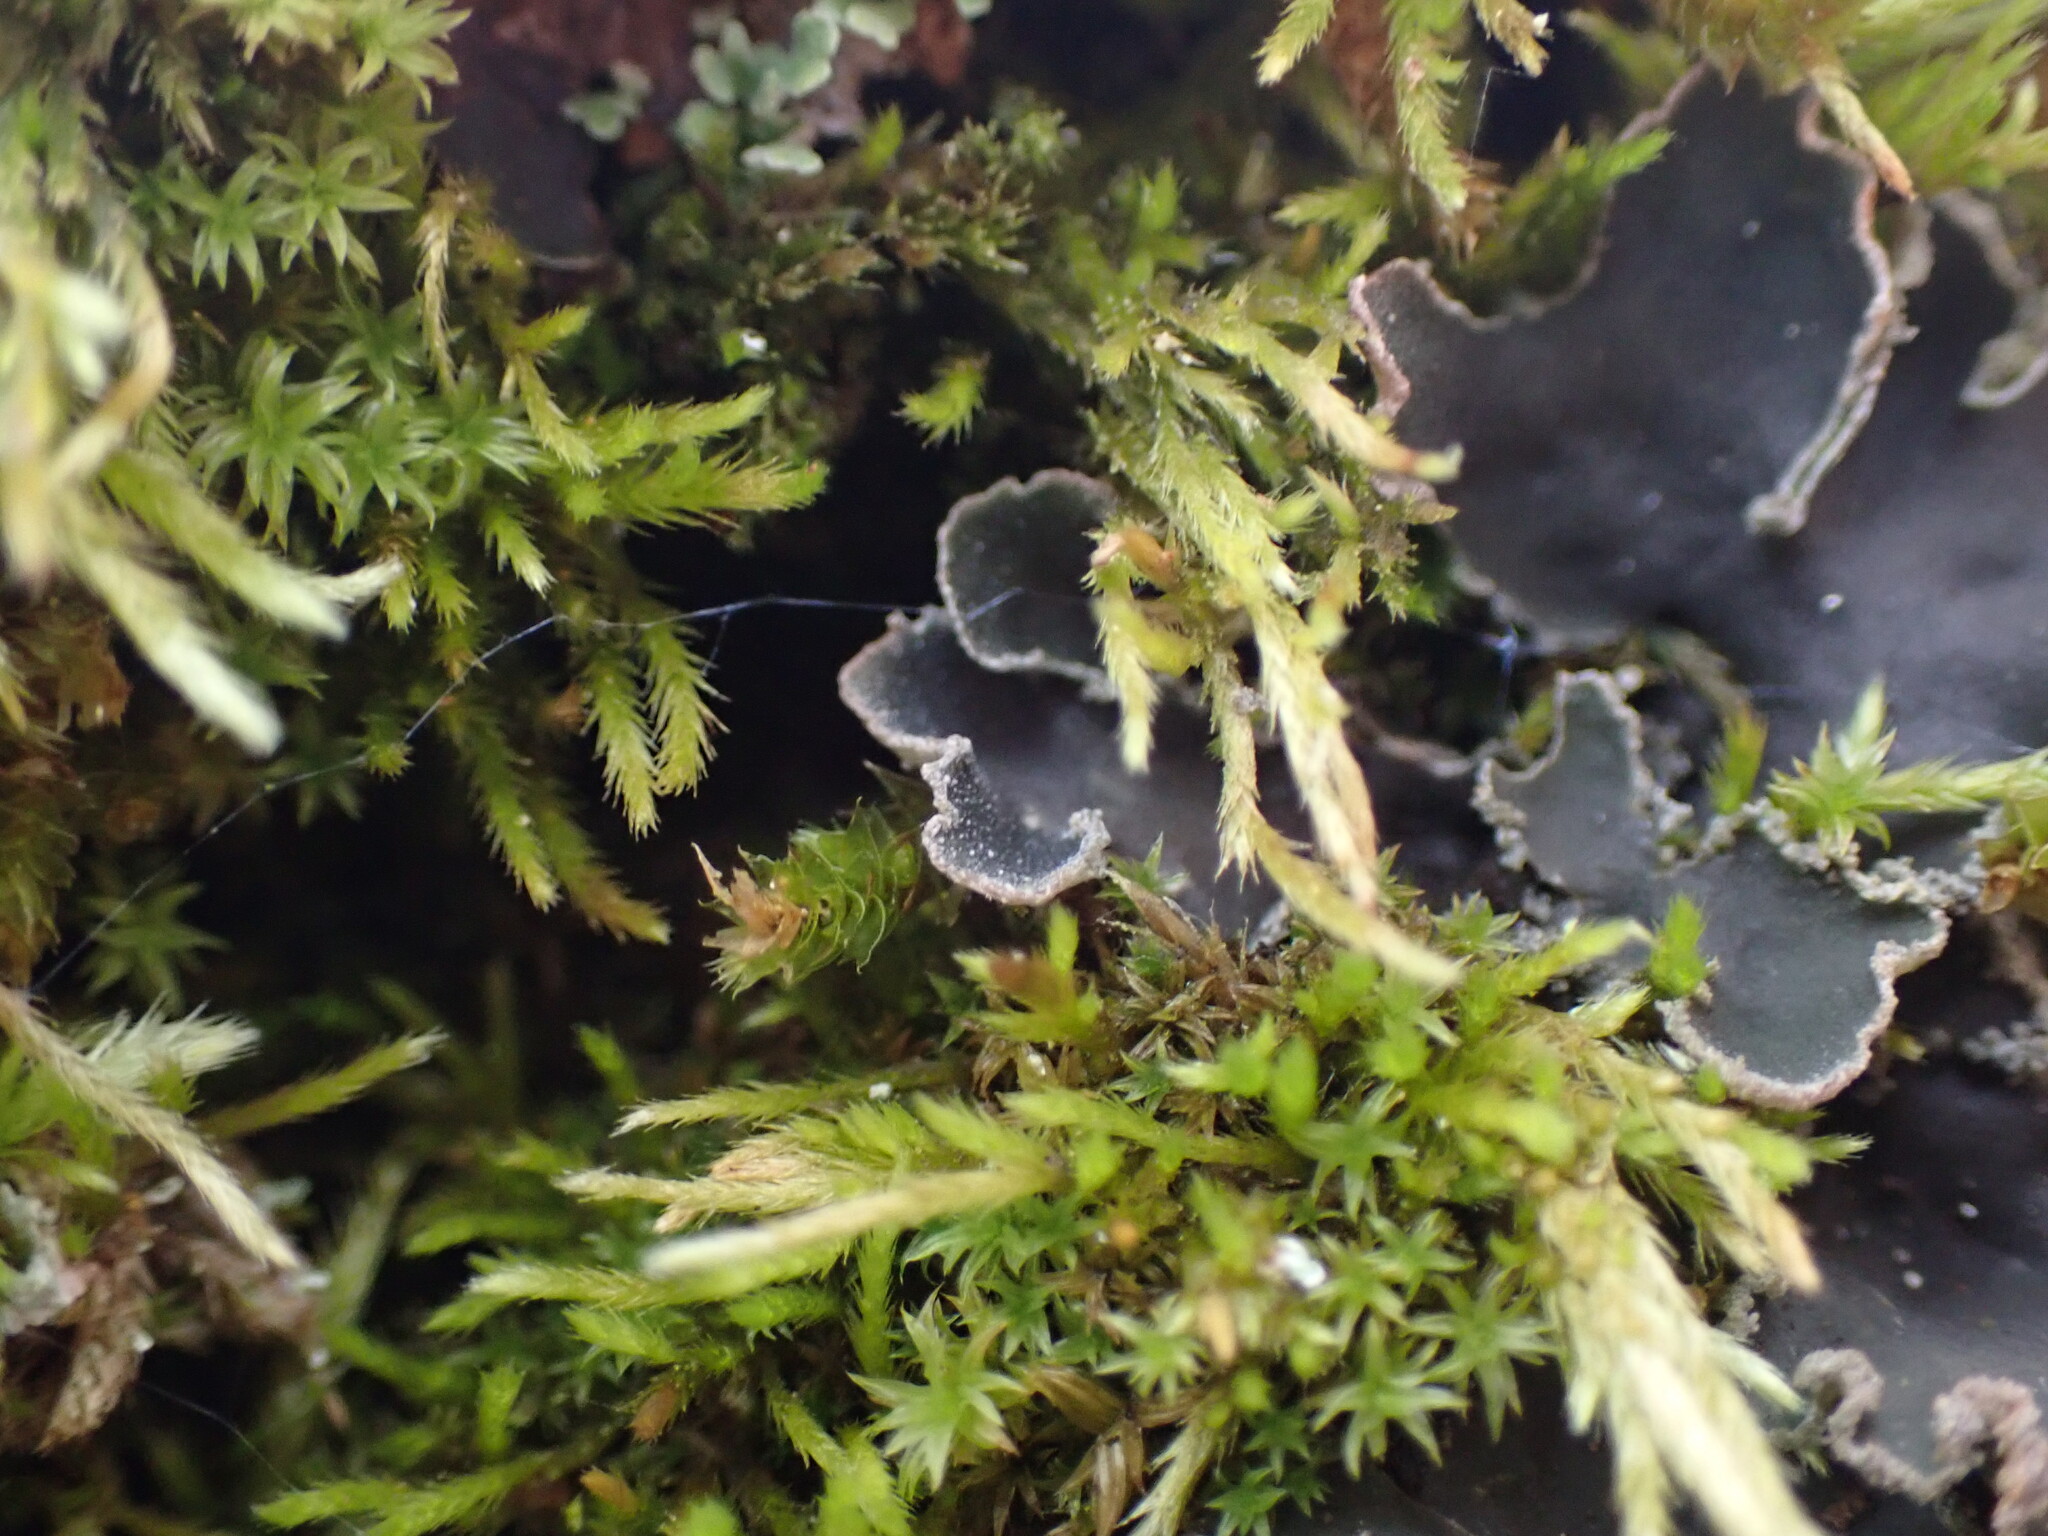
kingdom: Fungi
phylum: Ascomycota
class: Lecanoromycetes
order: Peltigerales
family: Peltigeraceae
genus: Peltigera
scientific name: Peltigera collina
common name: Gritty tree pelt lichen
